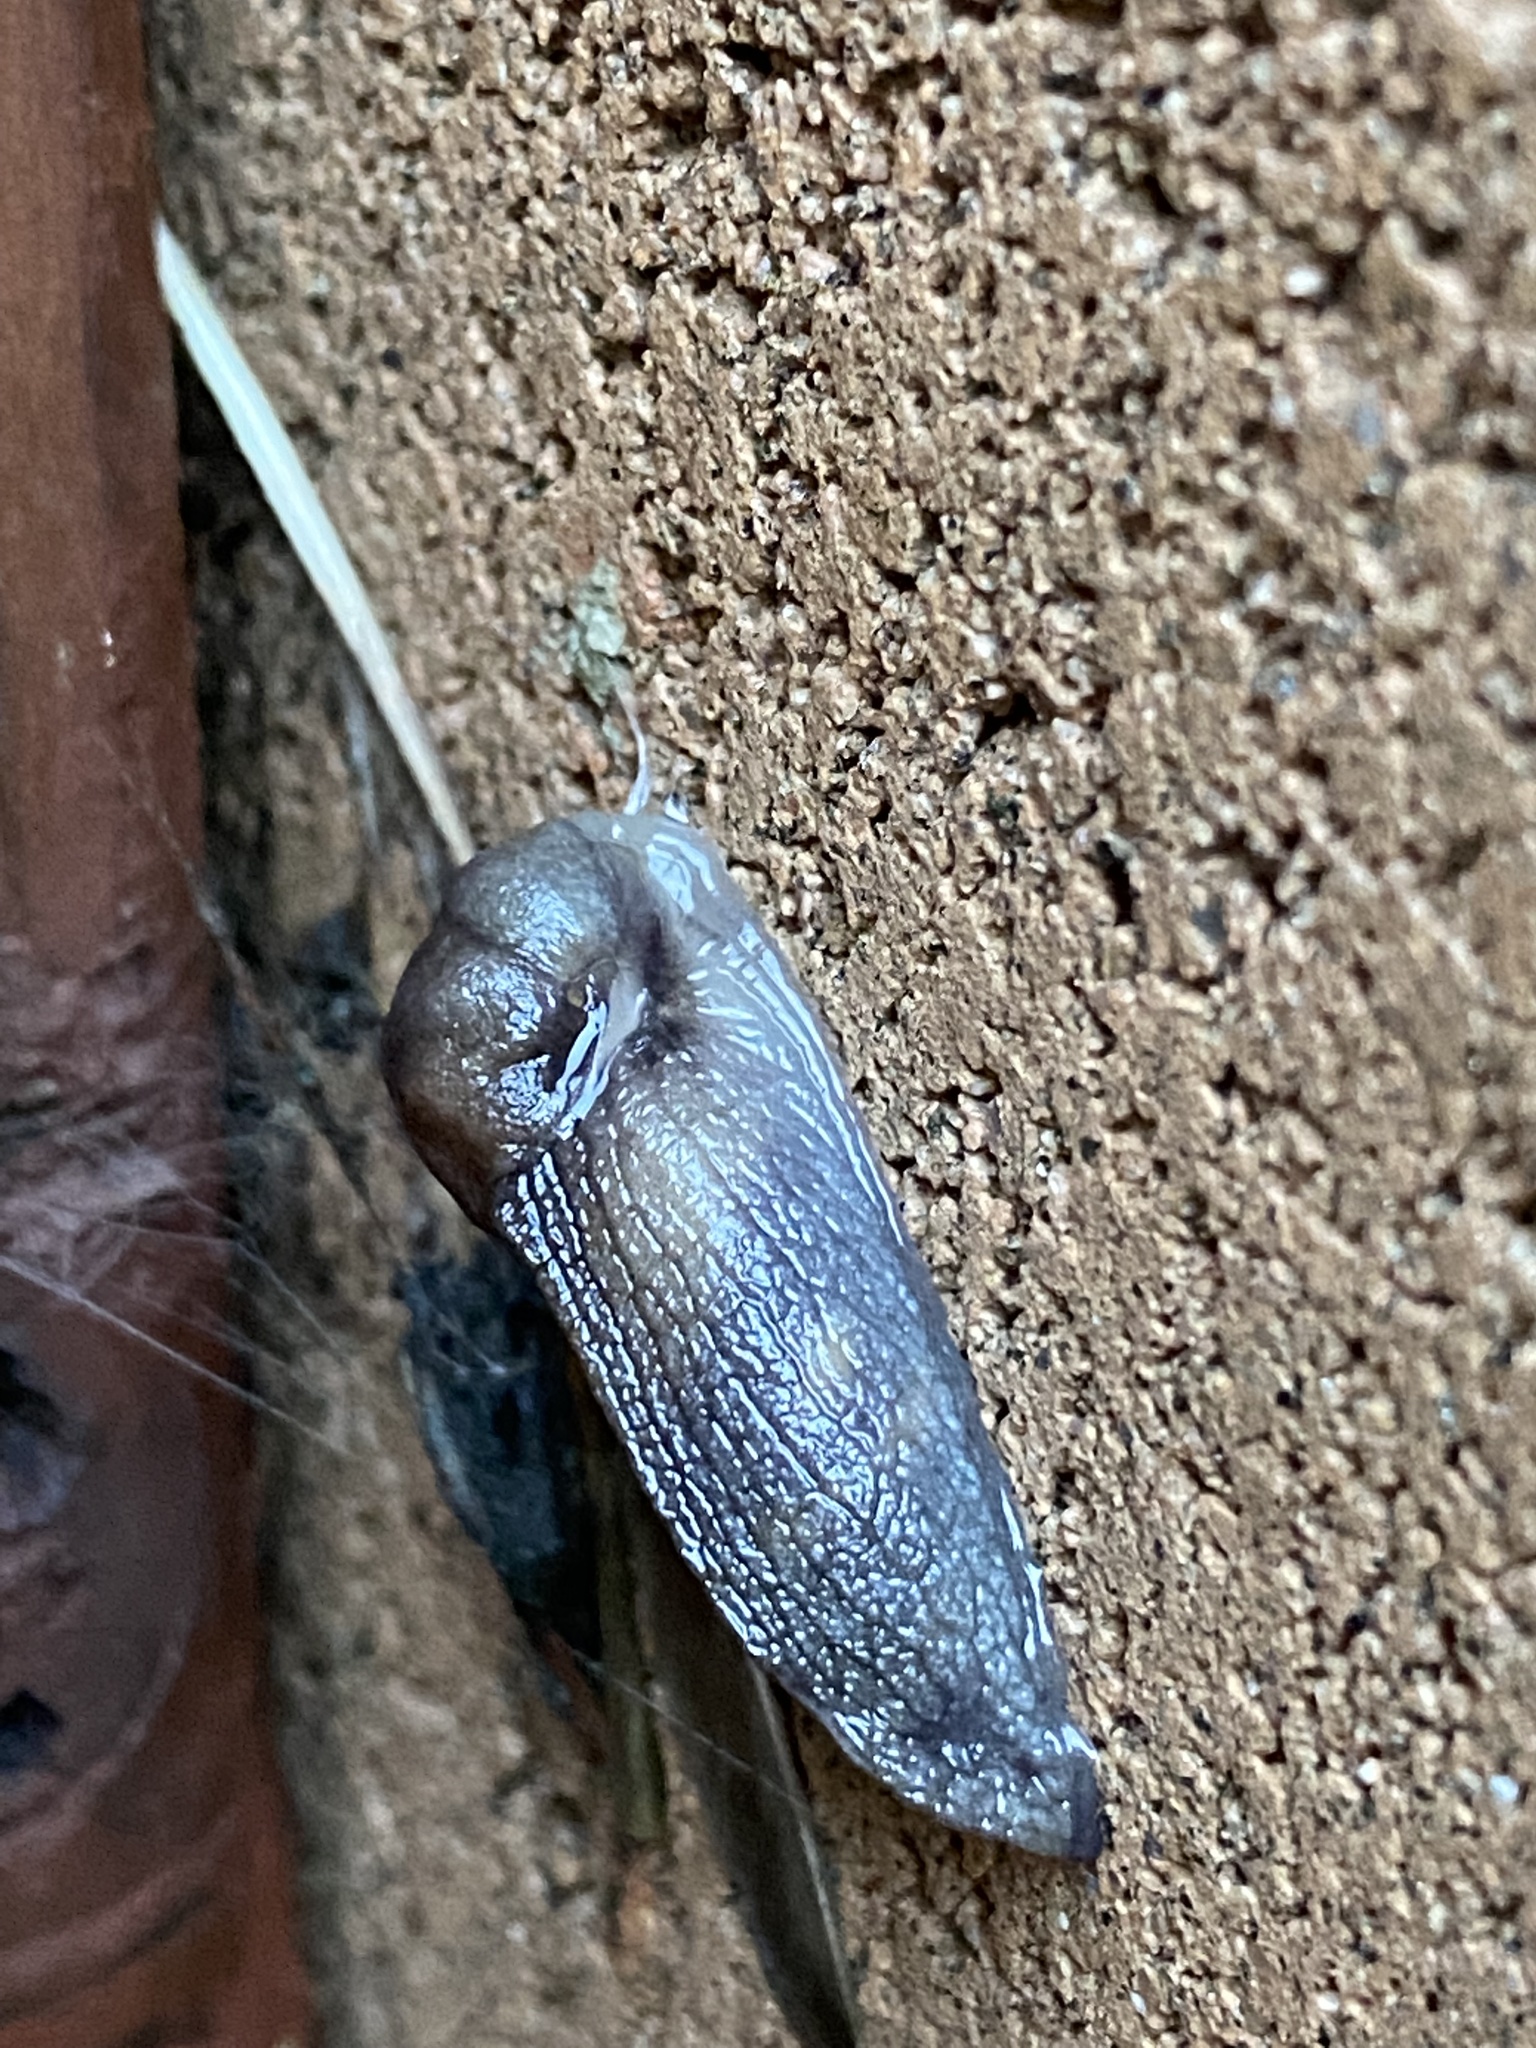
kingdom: Animalia
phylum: Mollusca
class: Gastropoda
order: Stylommatophora
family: Milacidae
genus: Milax
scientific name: Milax gagates
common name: Greenhouse slug
